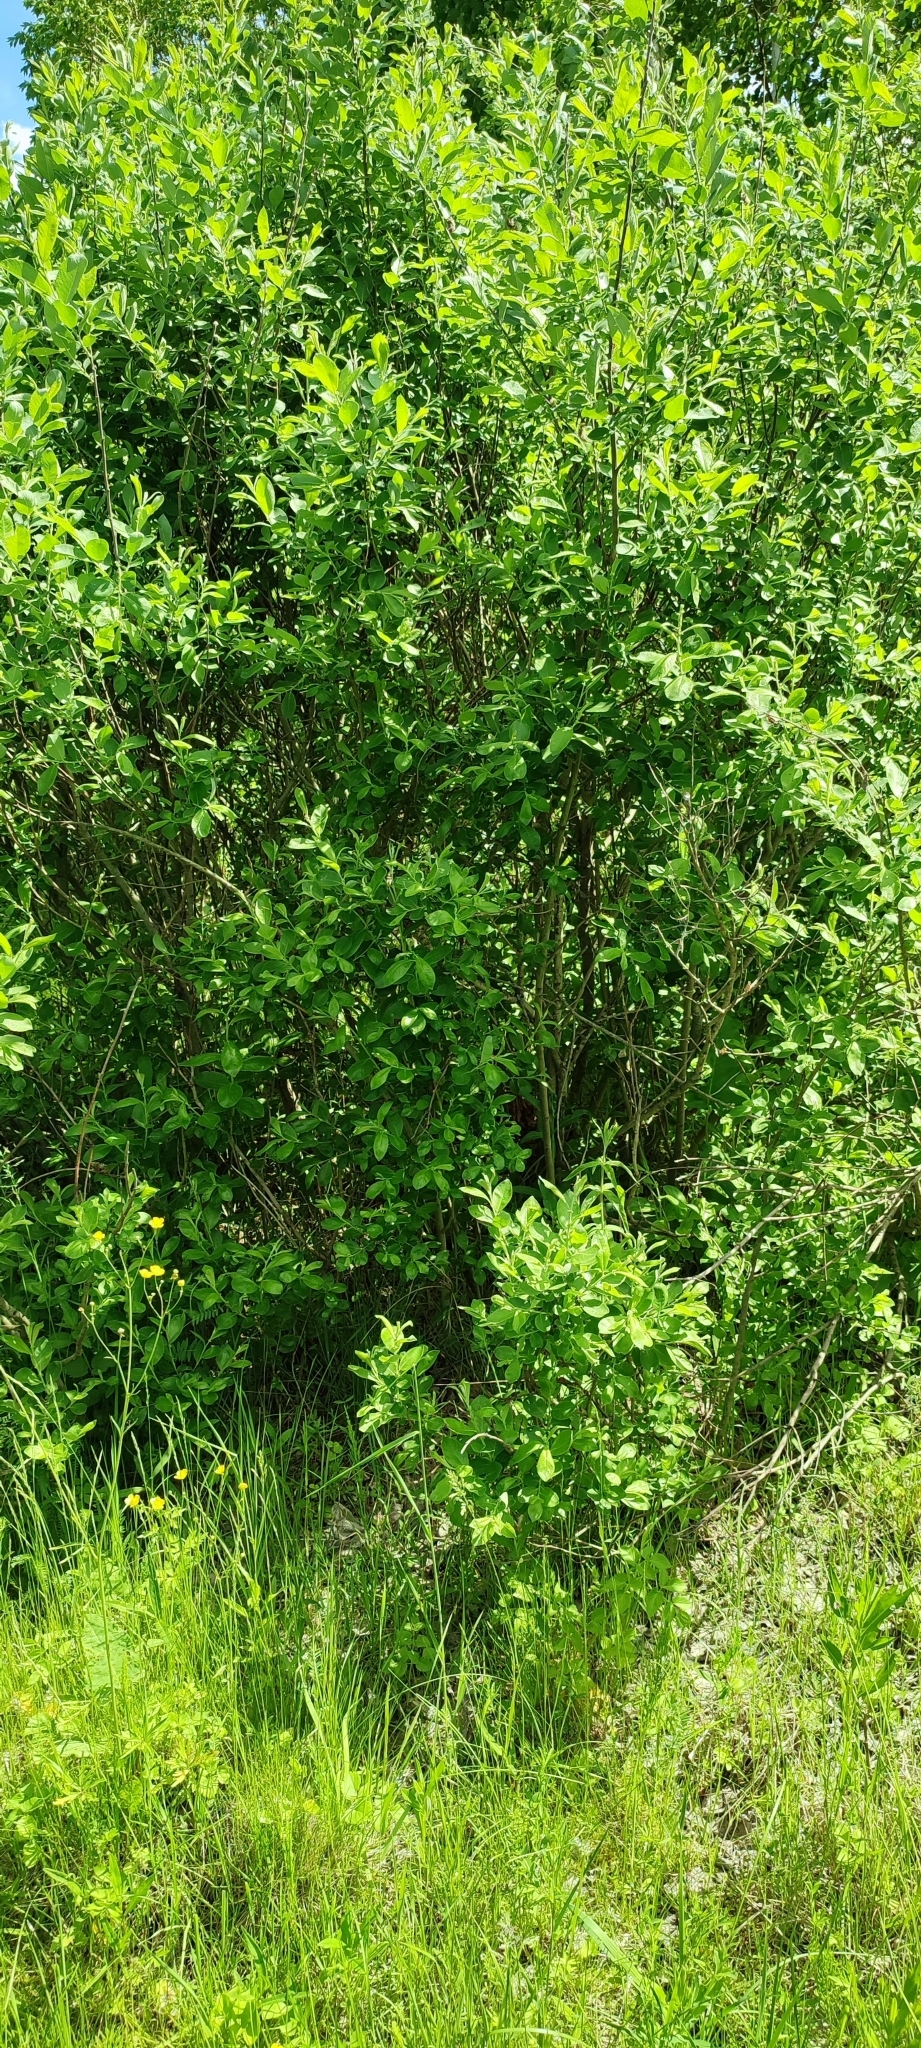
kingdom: Plantae
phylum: Tracheophyta
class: Magnoliopsida
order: Malpighiales
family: Salicaceae
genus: Salix
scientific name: Salix cinerea
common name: Common sallow
